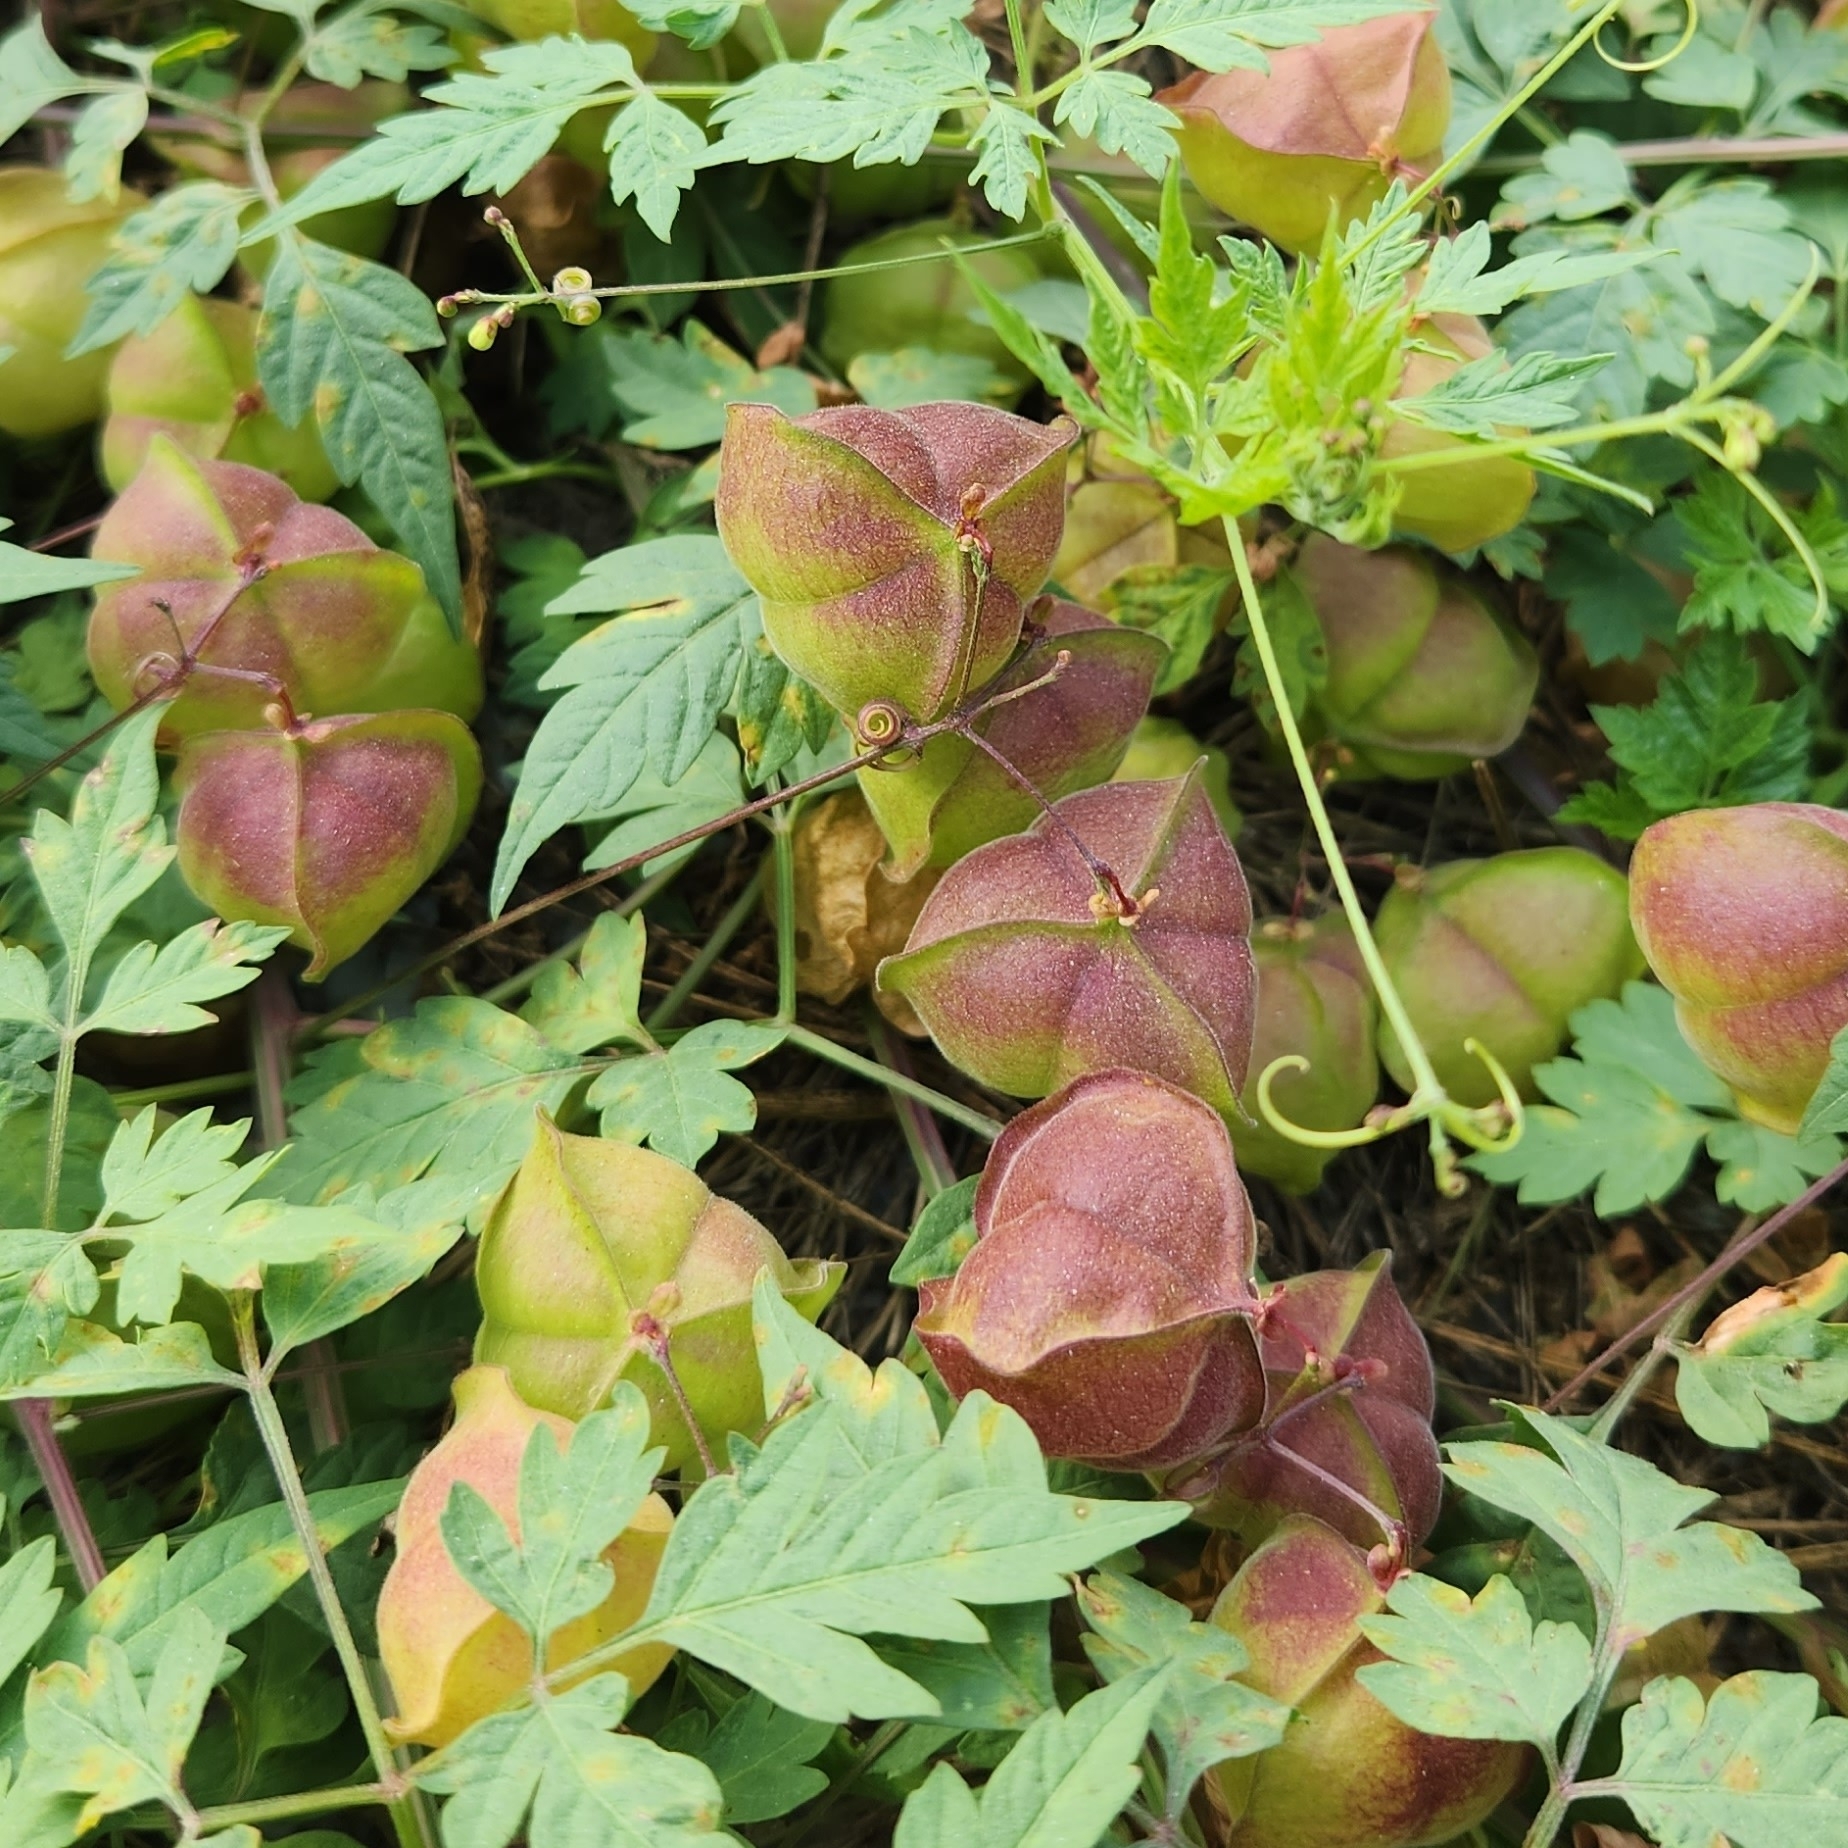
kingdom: Plantae
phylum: Tracheophyta
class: Magnoliopsida
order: Sapindales
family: Sapindaceae
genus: Cardiospermum
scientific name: Cardiospermum halicacabum
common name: Balloon vine
